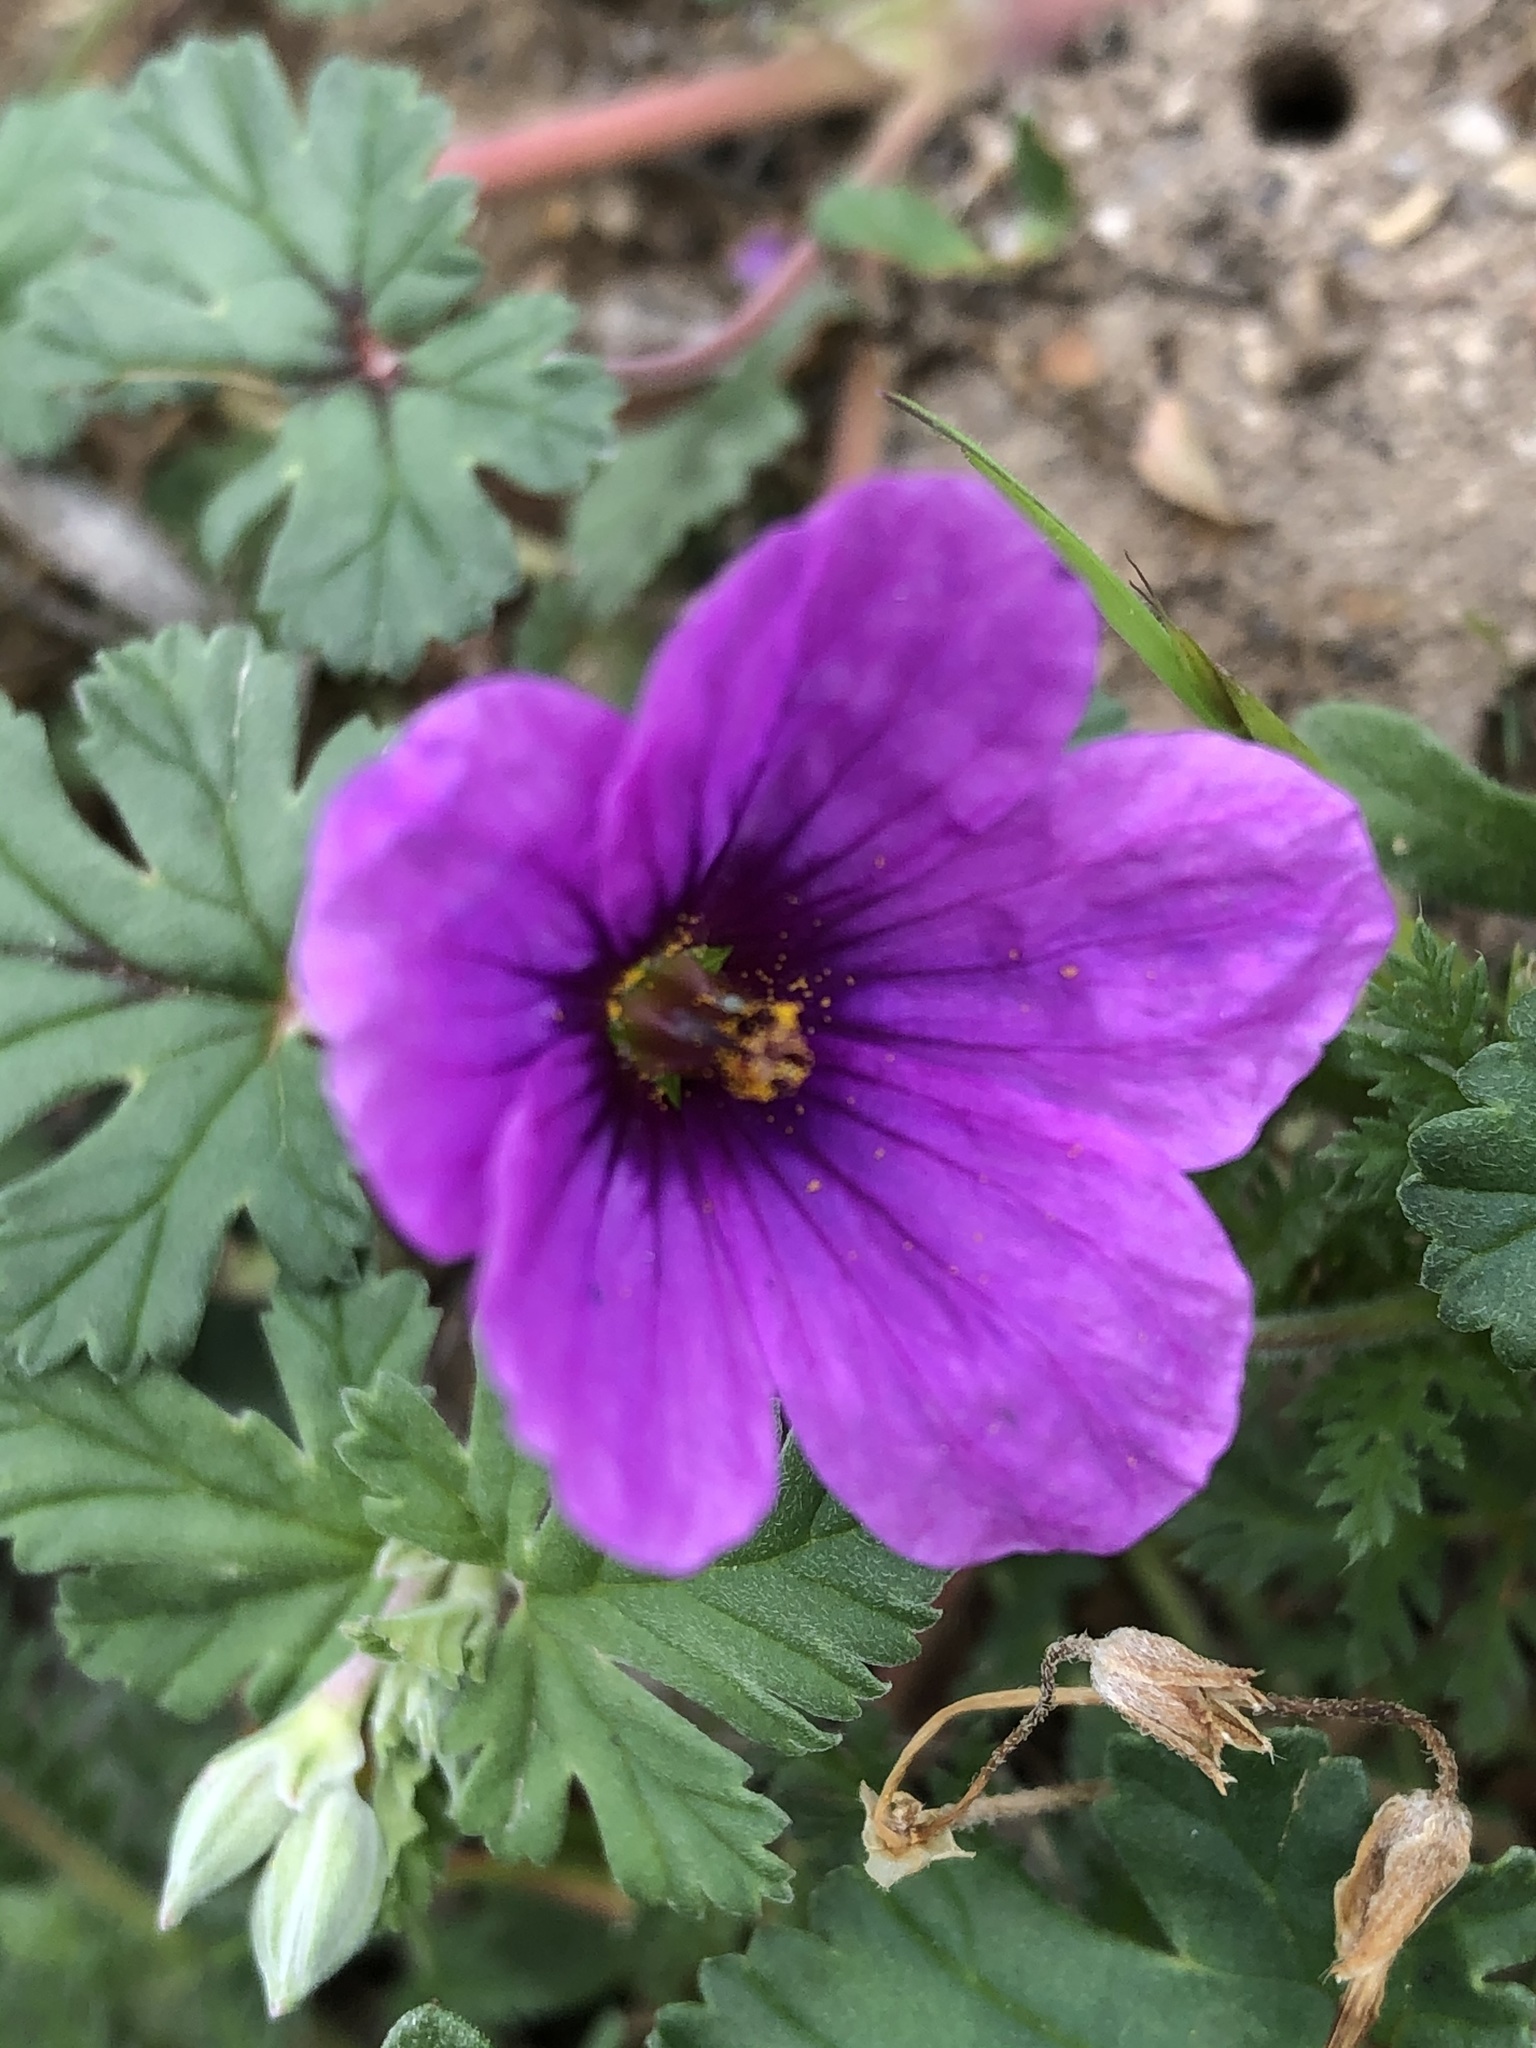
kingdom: Plantae
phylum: Tracheophyta
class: Magnoliopsida
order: Geraniales
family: Geraniaceae
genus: Erodium
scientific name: Erodium texanum
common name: Texas stork's-bill
